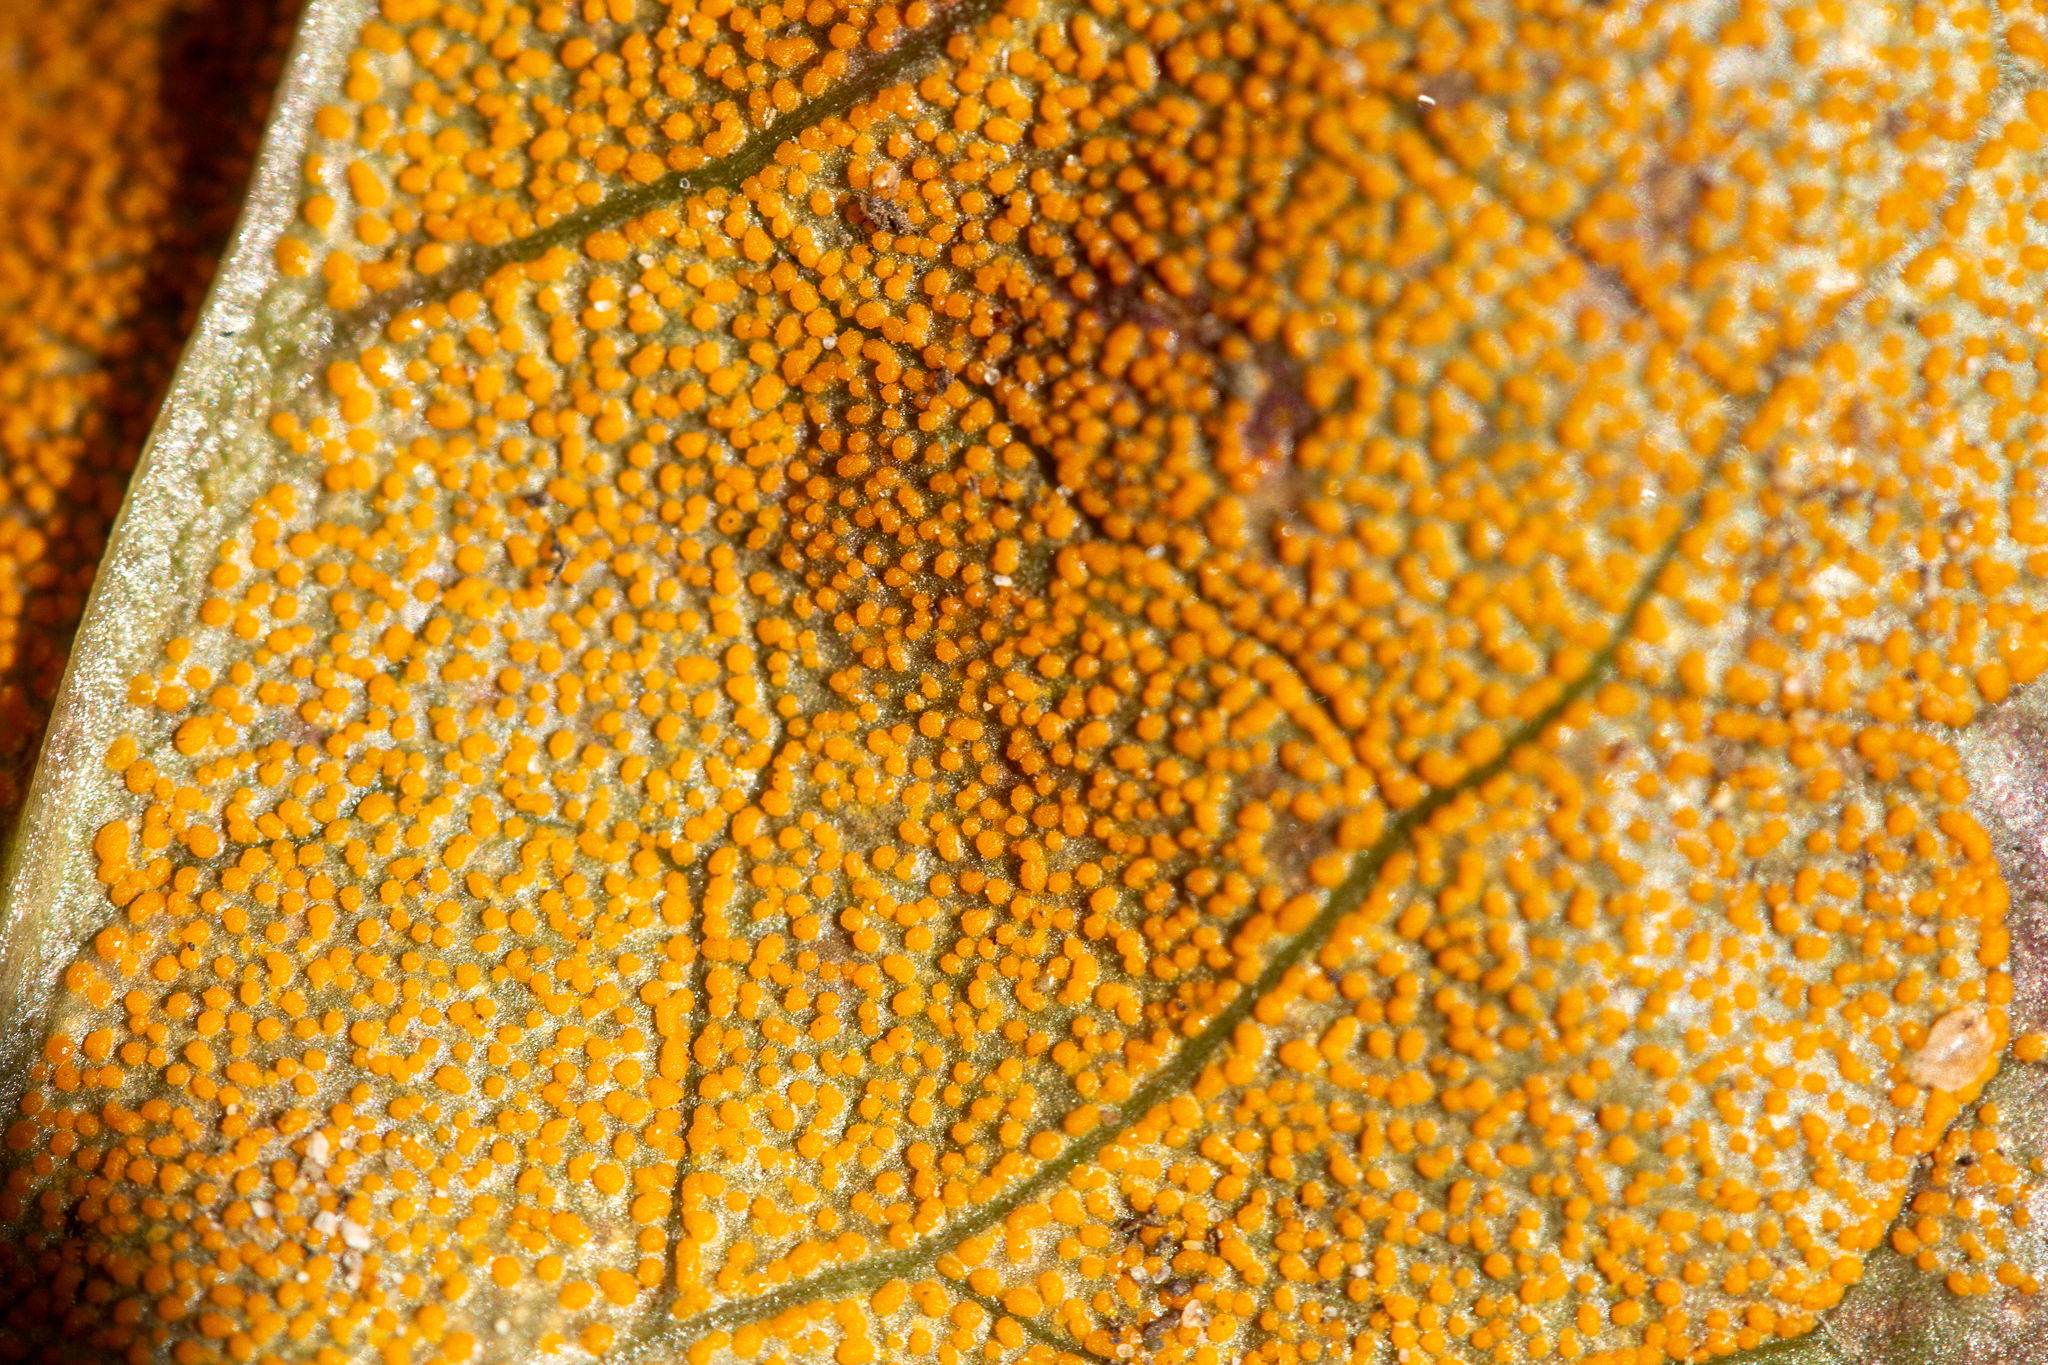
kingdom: Fungi
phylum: Basidiomycota
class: Pucciniomycetes
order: Pucciniales
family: Coleosporiaceae
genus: Rossmanomyces
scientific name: Rossmanomyces pyrolae
